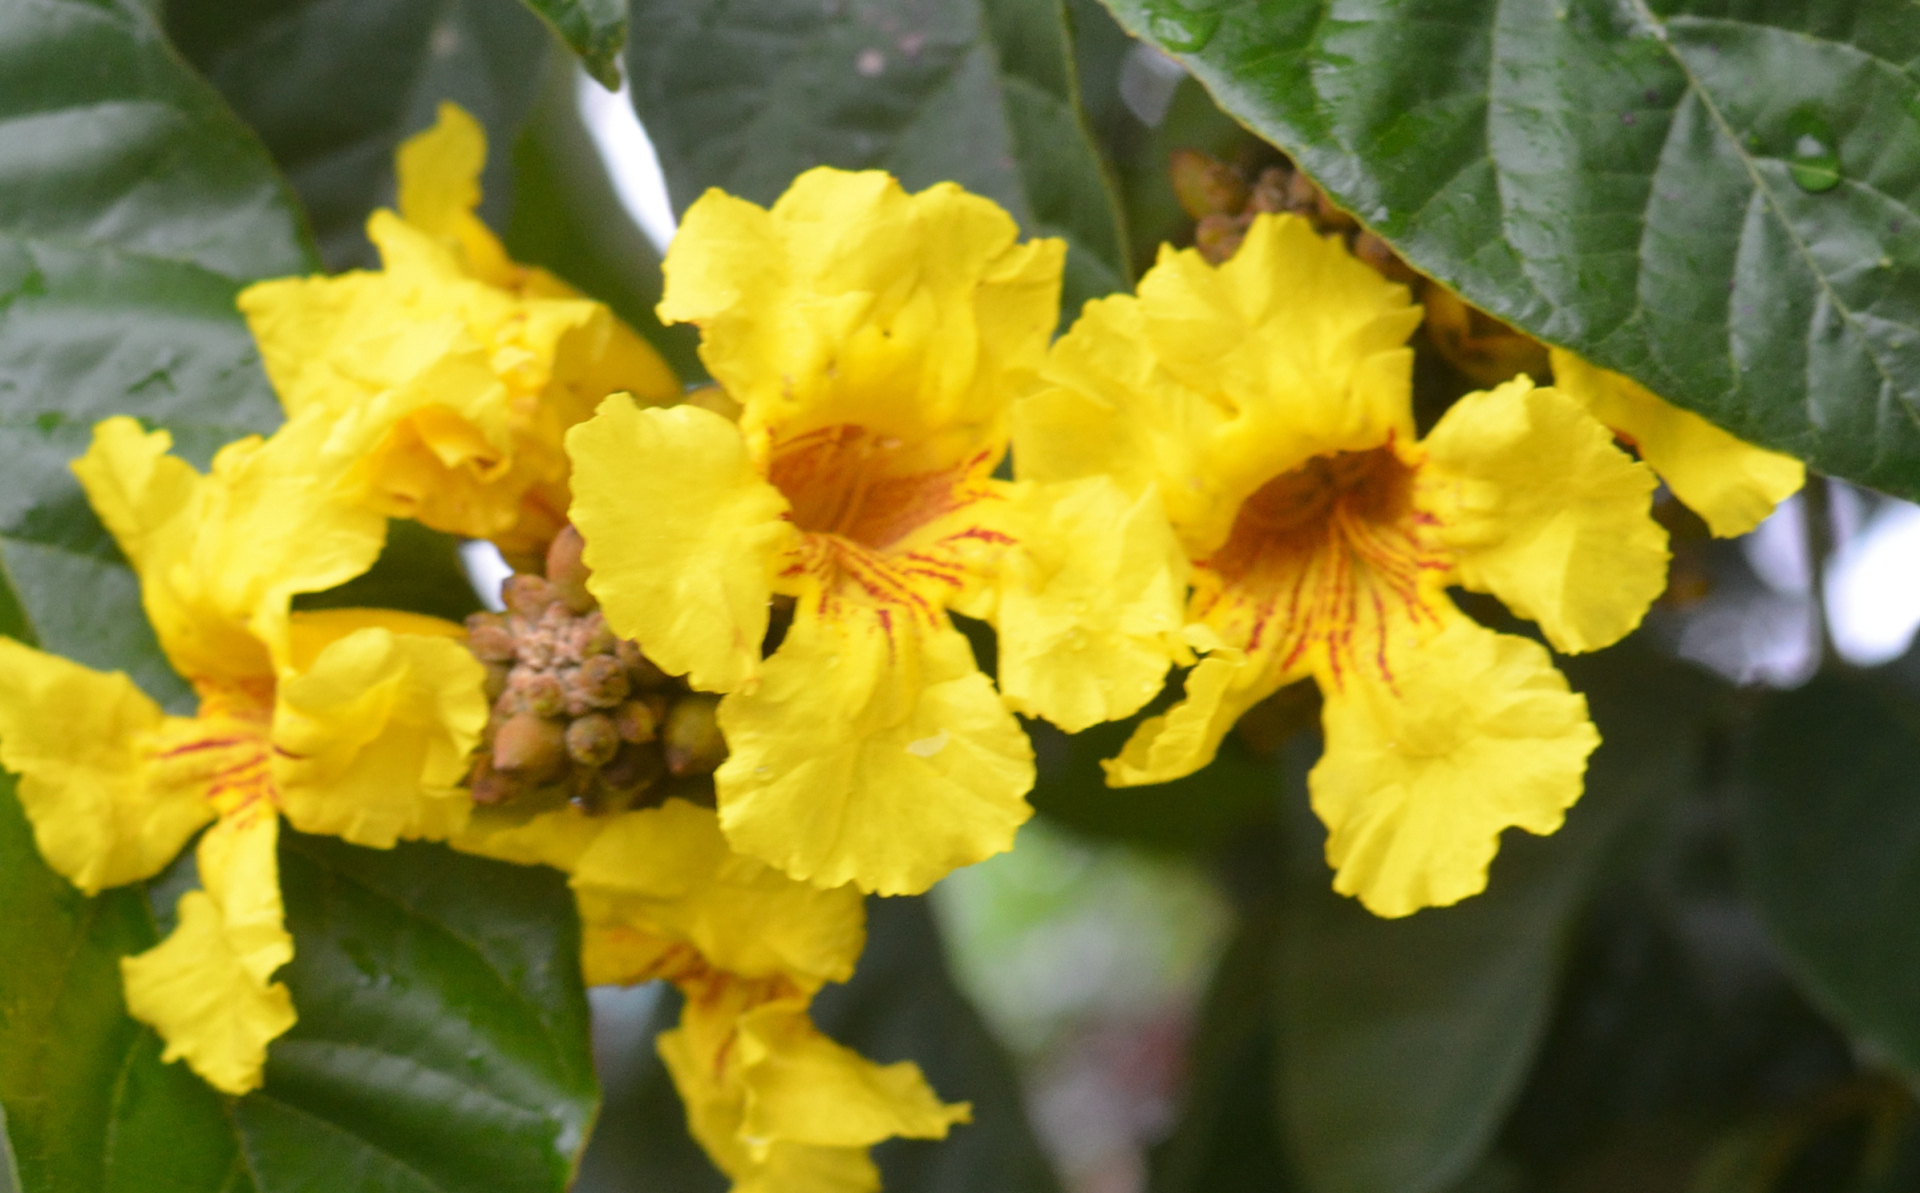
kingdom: Plantae
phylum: Tracheophyta
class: Magnoliopsida
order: Lamiales
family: Bignoniaceae
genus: Markhamia
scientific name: Markhamia lutea
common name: Siala
